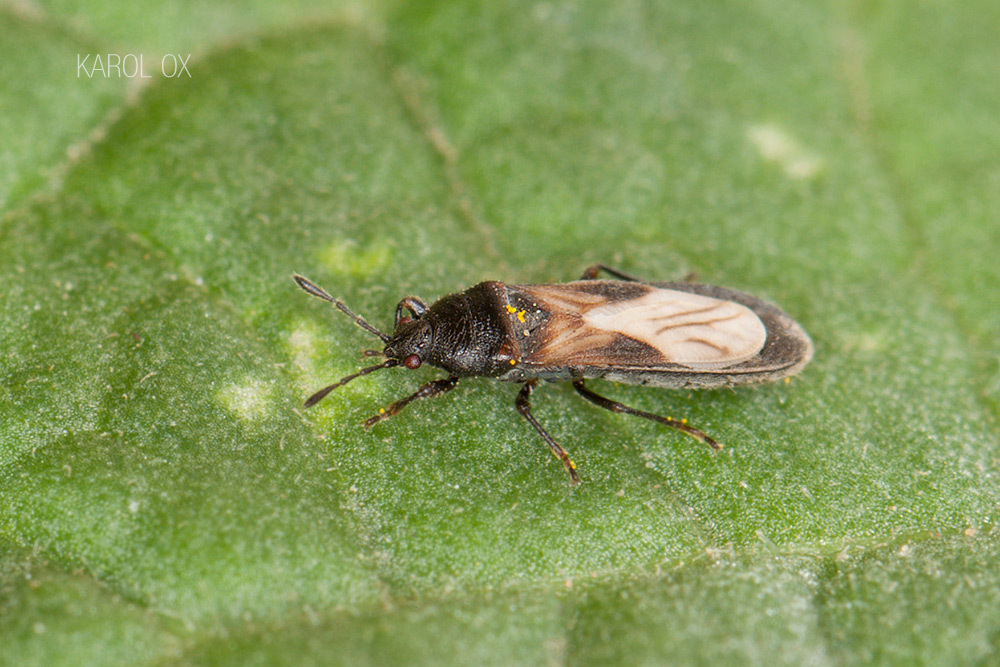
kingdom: Animalia
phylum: Arthropoda
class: Insecta
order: Hemiptera
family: Blissidae
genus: Dimorphopterus
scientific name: Dimorphopterus spinolae
